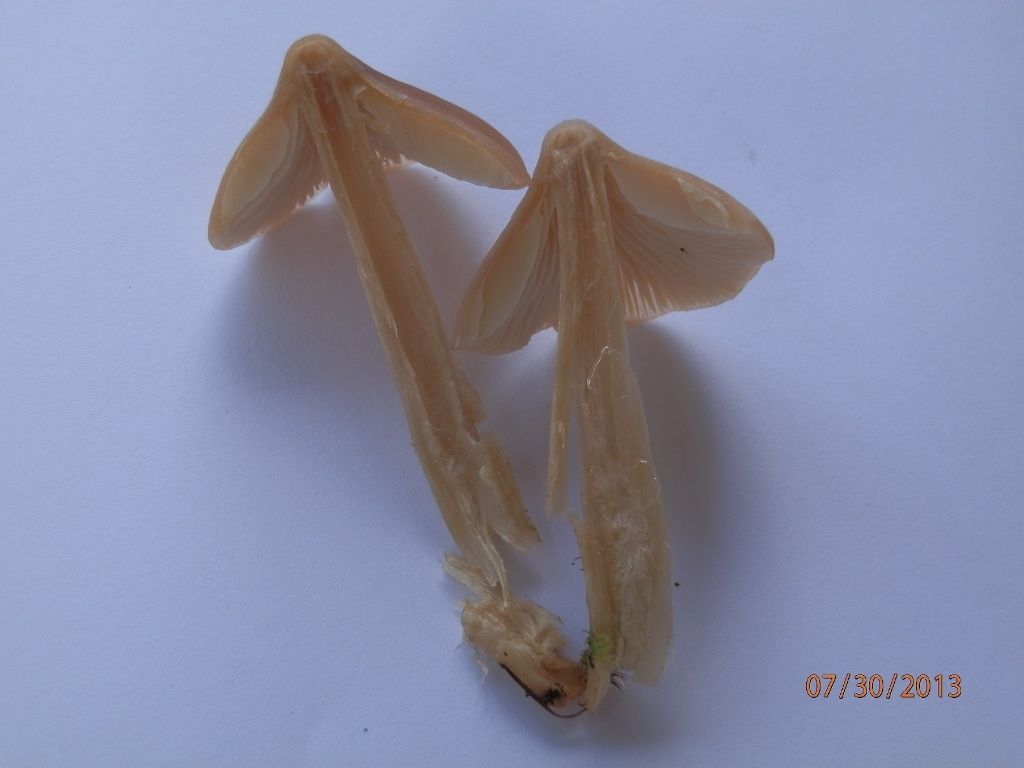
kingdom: Fungi
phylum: Basidiomycota
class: Agaricomycetes
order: Agaricales
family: Entolomataceae
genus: Entoloma
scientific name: Entoloma strictius
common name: Straight-stalked entoloma
